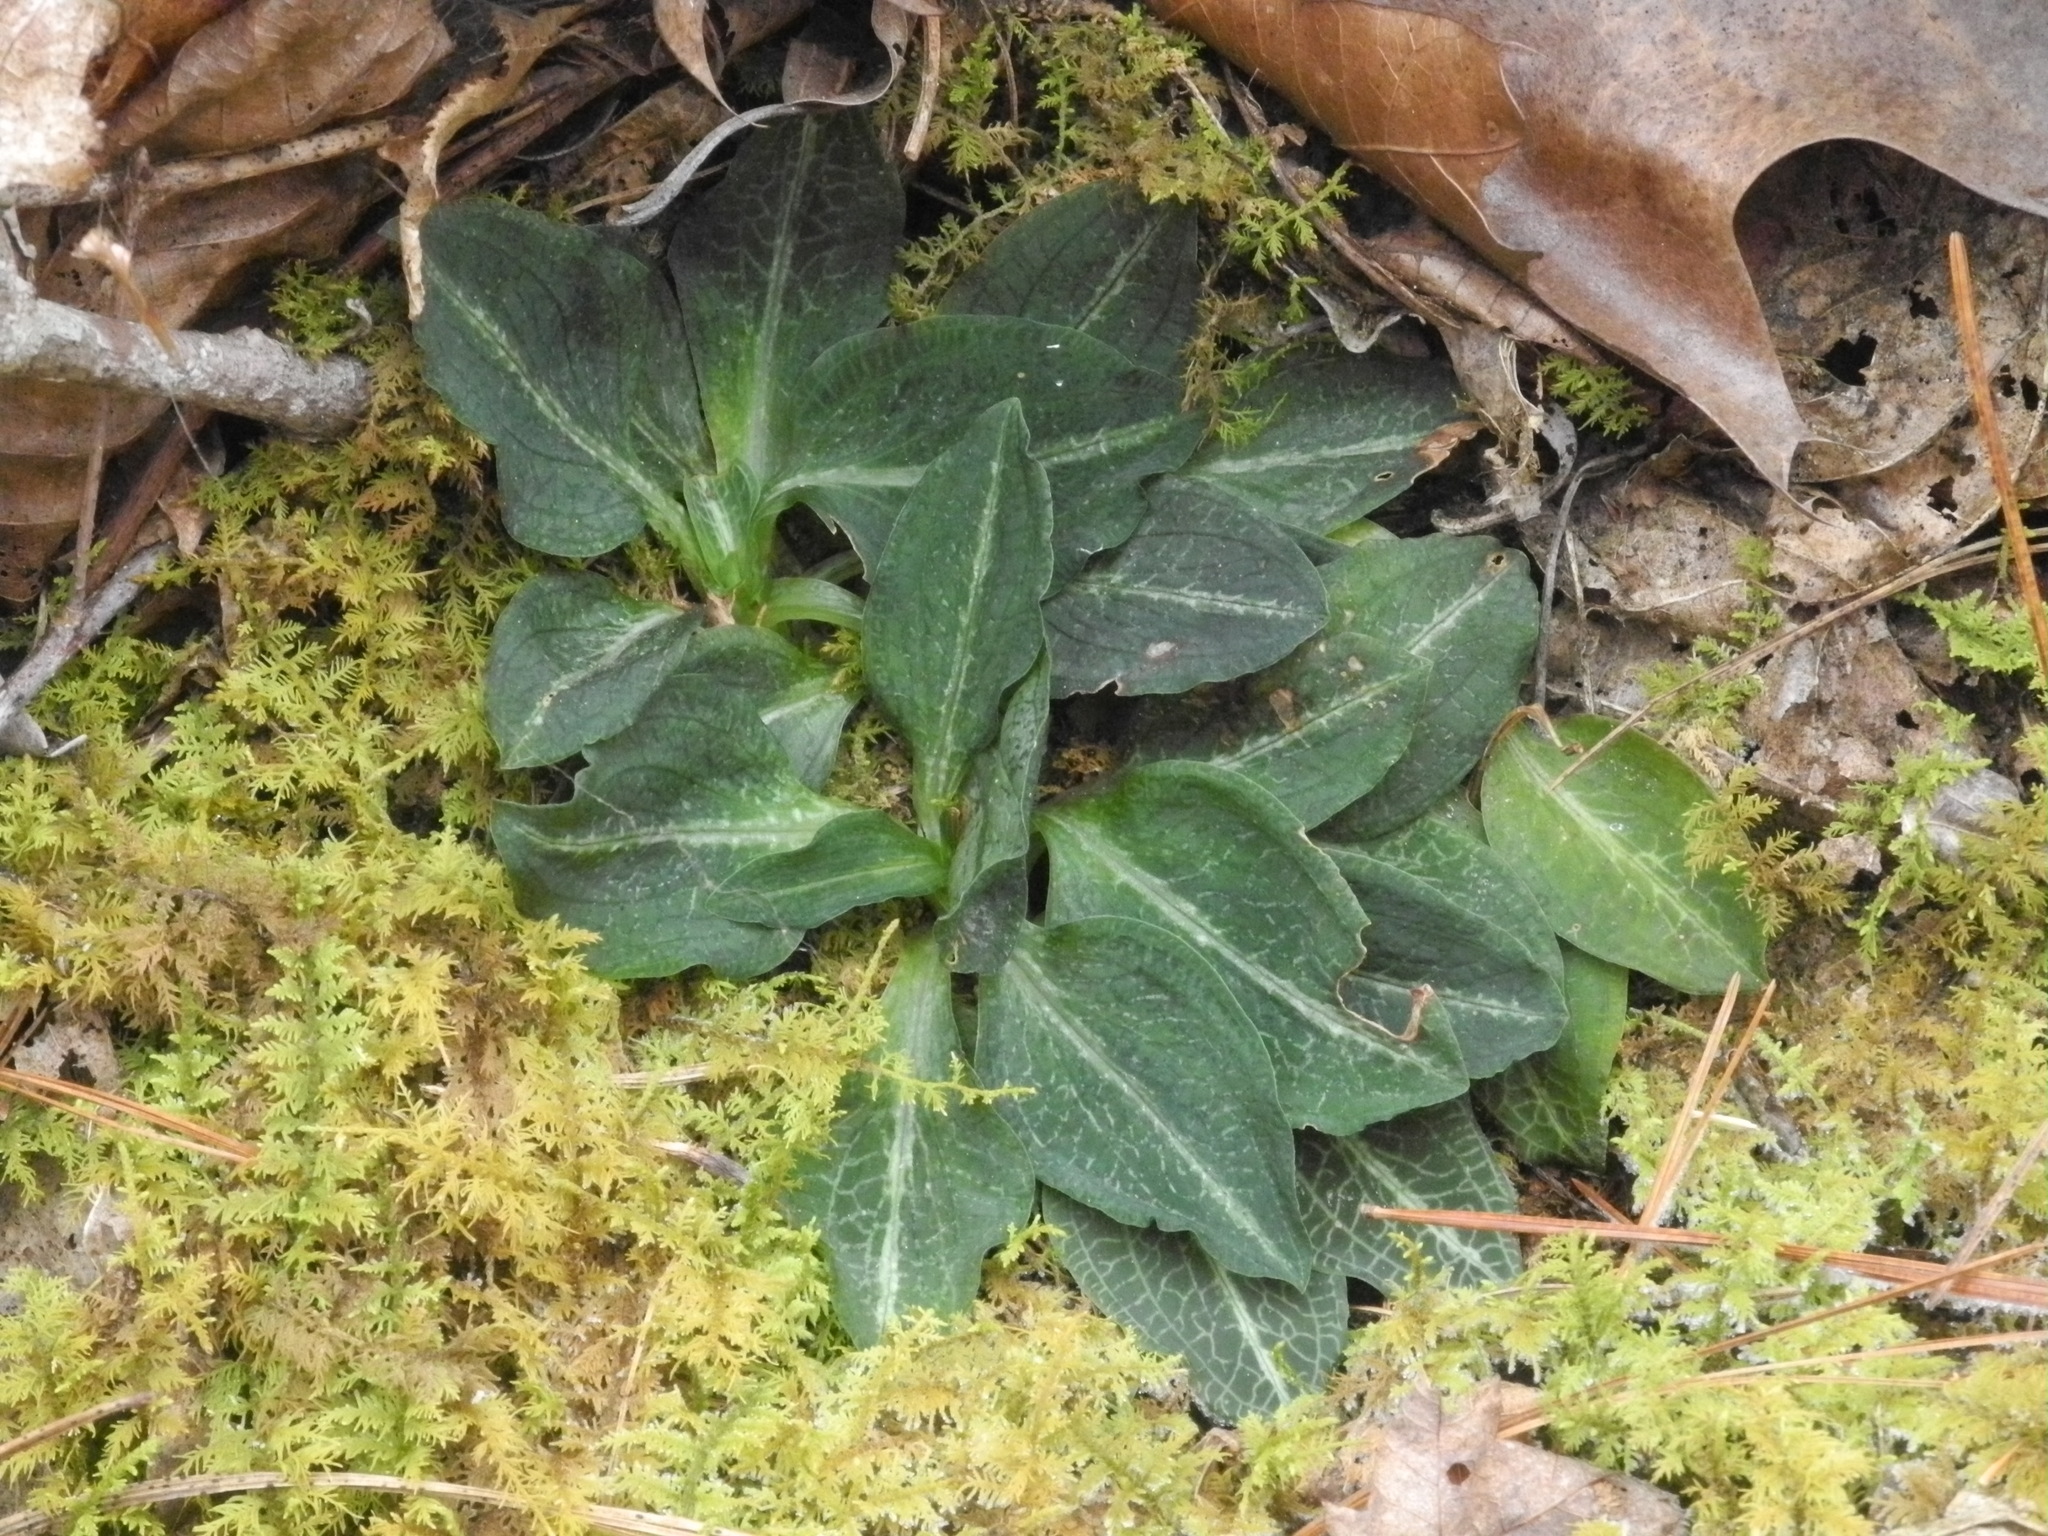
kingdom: Plantae
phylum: Tracheophyta
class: Liliopsida
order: Asparagales
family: Orchidaceae
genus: Goodyera
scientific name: Goodyera pubescens
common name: Downy rattlesnake-plantain
